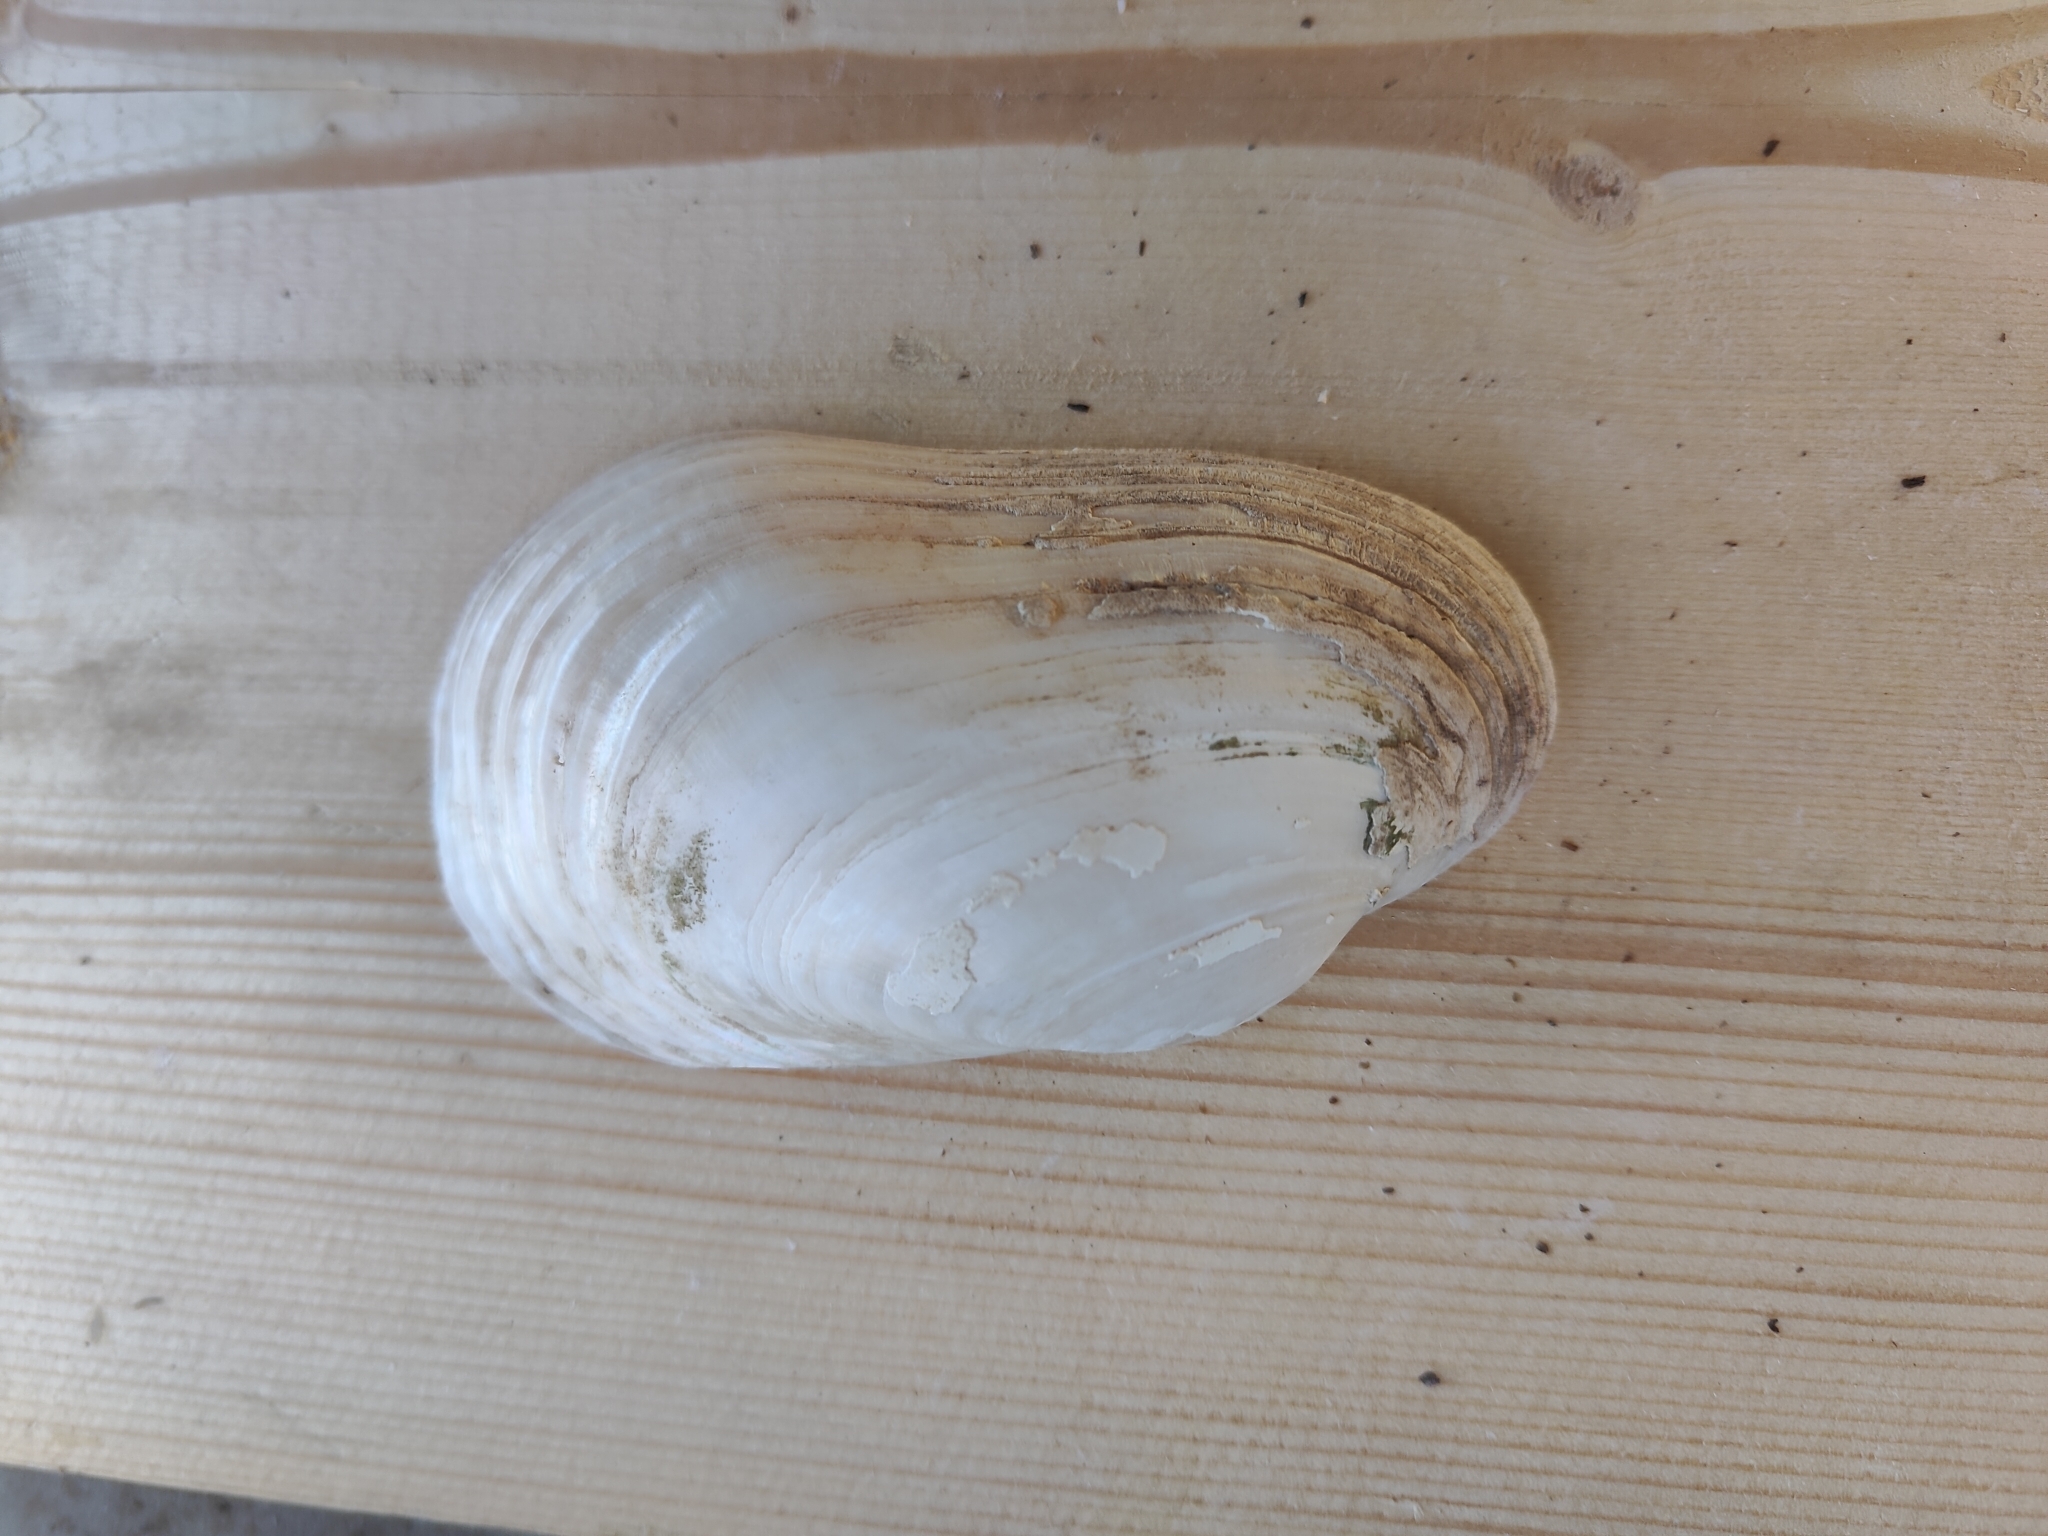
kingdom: Animalia
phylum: Mollusca
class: Bivalvia
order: Unionida
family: Unionidae
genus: Lampsilis
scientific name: Lampsilis siliquoidea
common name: Fatmucket
